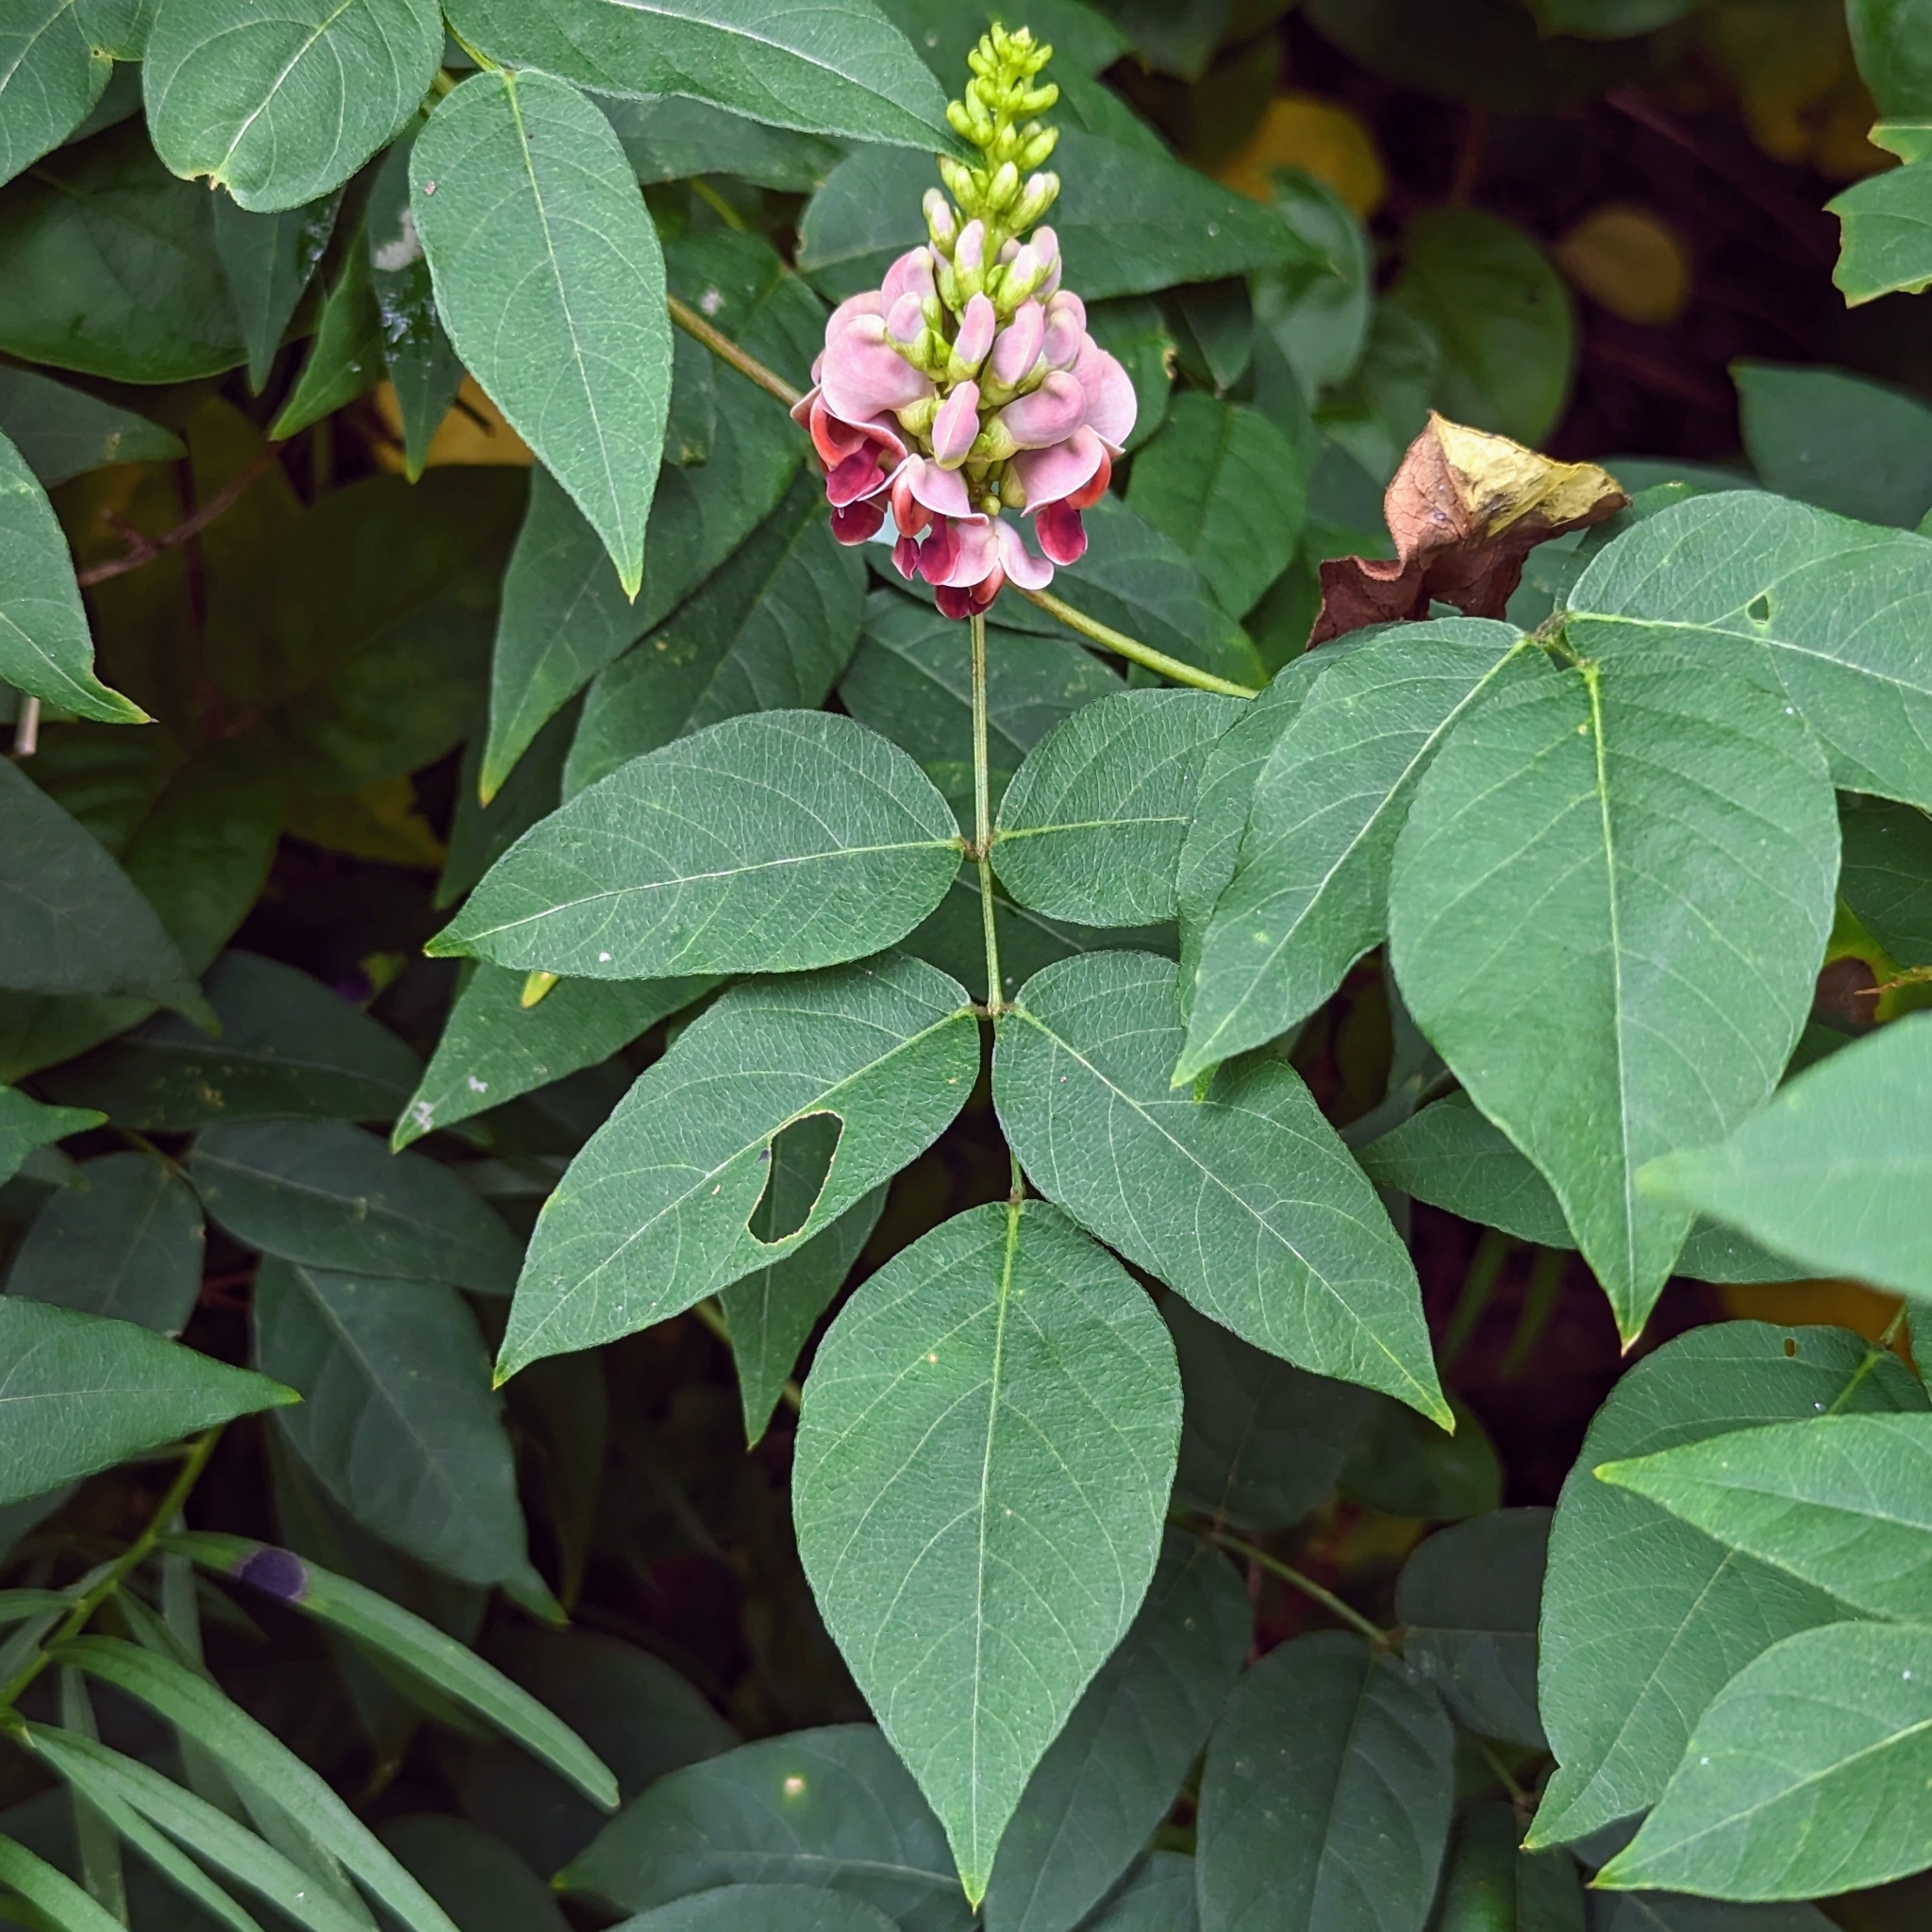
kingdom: Plantae
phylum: Tracheophyta
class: Magnoliopsida
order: Fabales
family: Fabaceae
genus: Apios
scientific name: Apios americana
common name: American potato-bean
